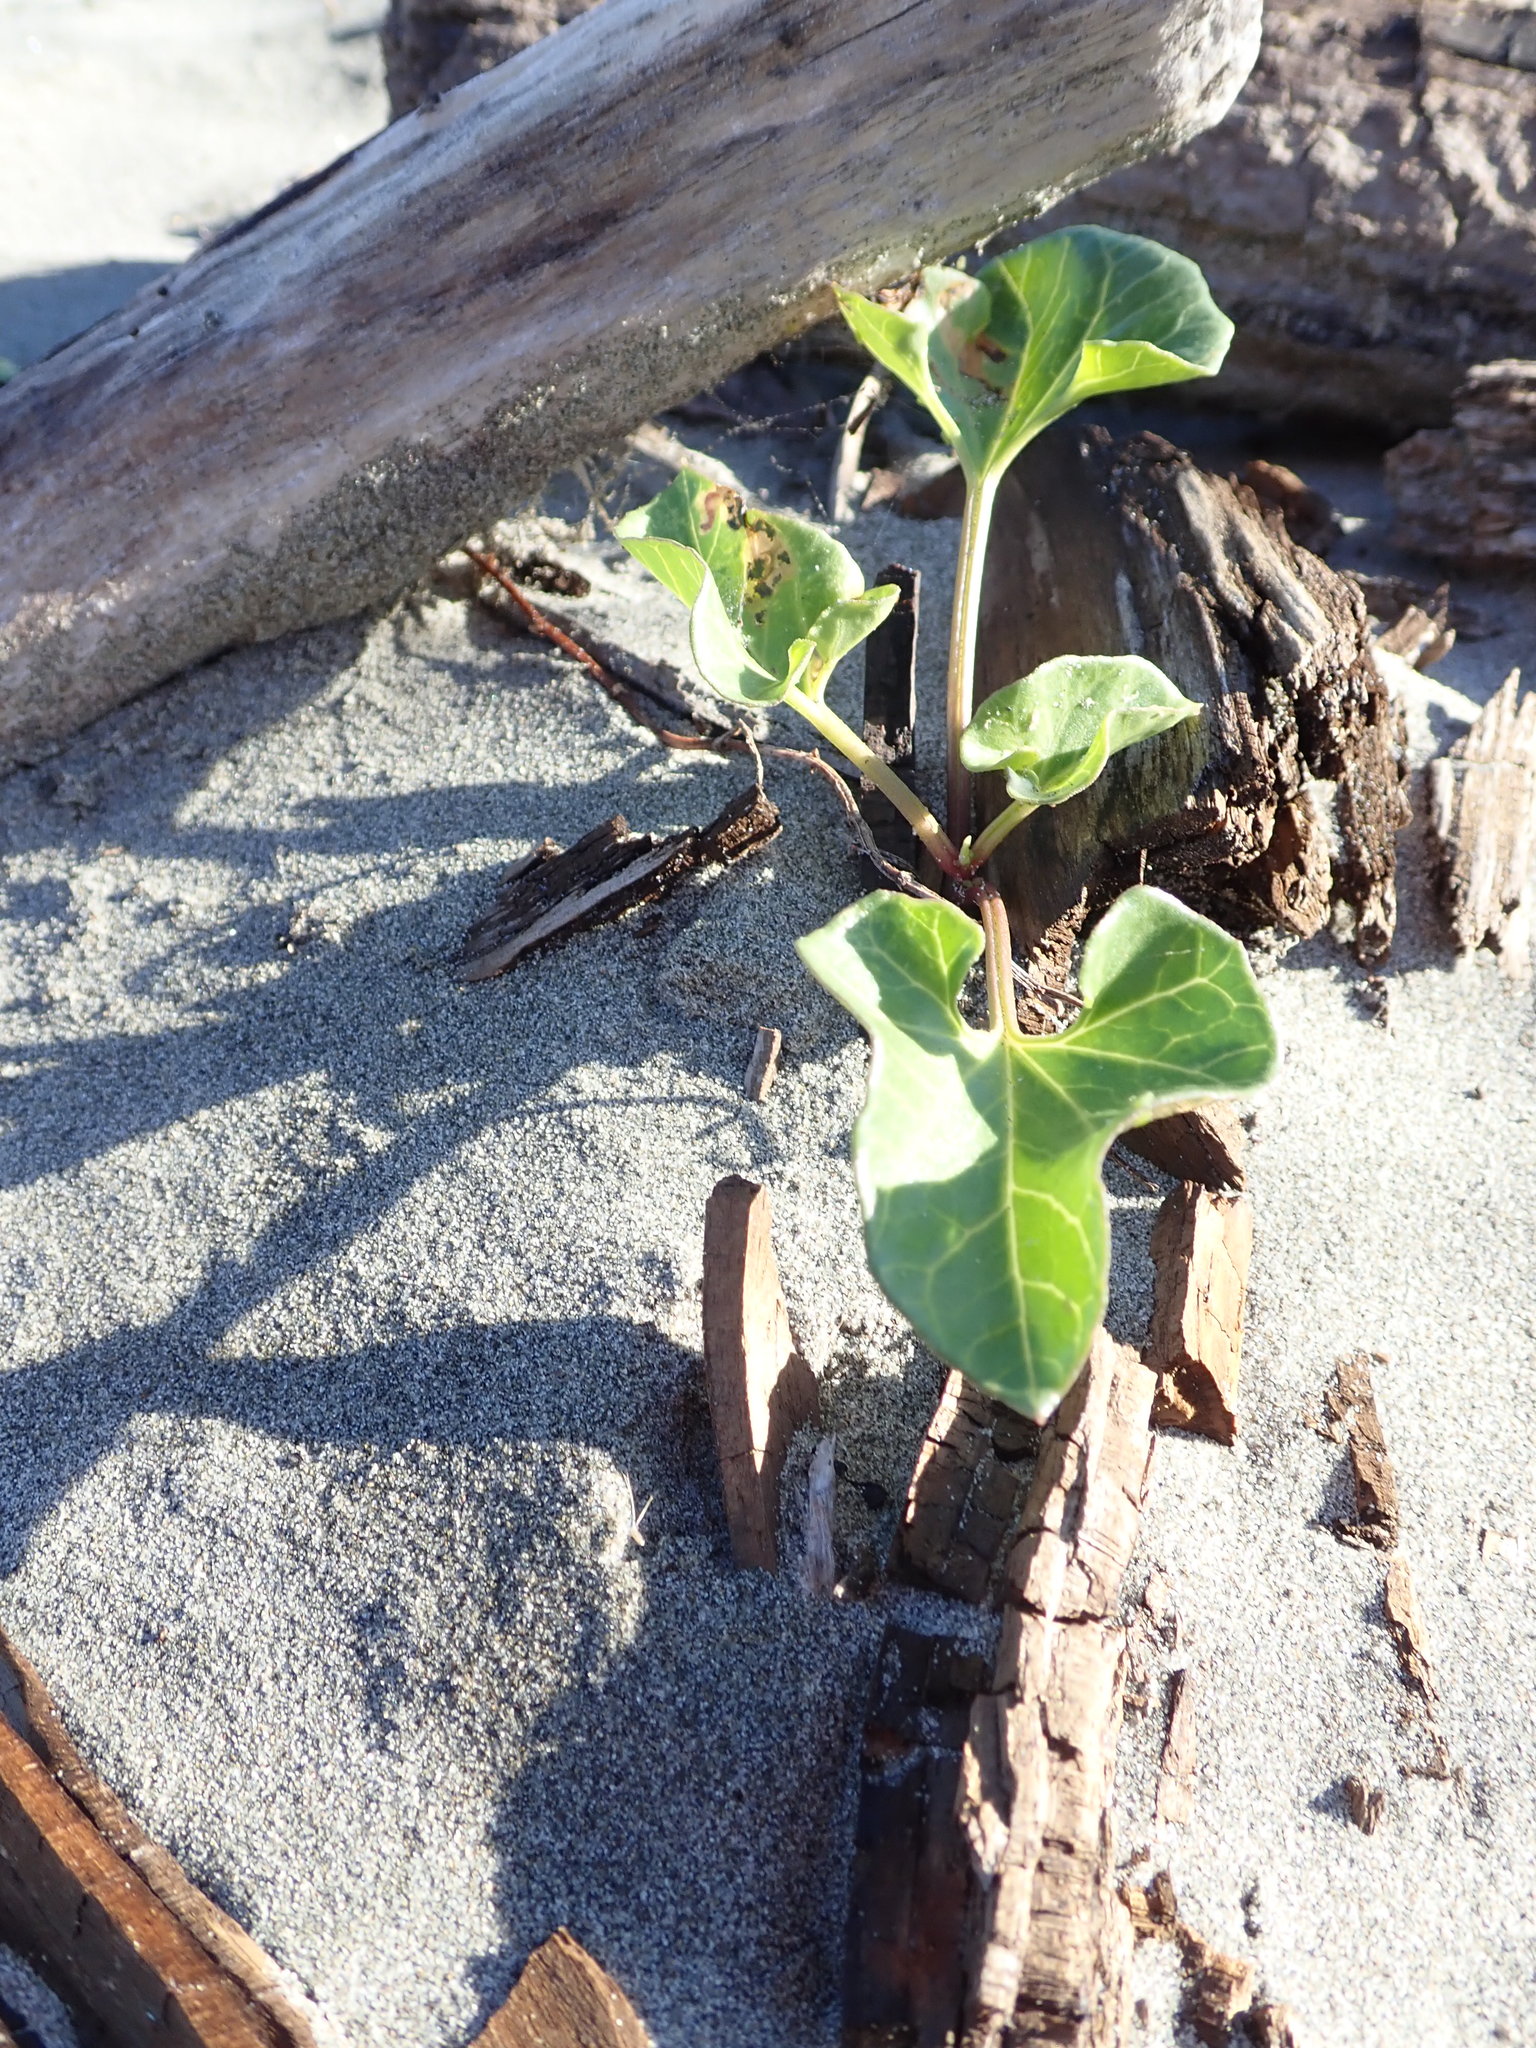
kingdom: Plantae
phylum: Tracheophyta
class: Magnoliopsida
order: Solanales
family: Convolvulaceae
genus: Calystegia
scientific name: Calystegia soldanella
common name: Sea bindweed
